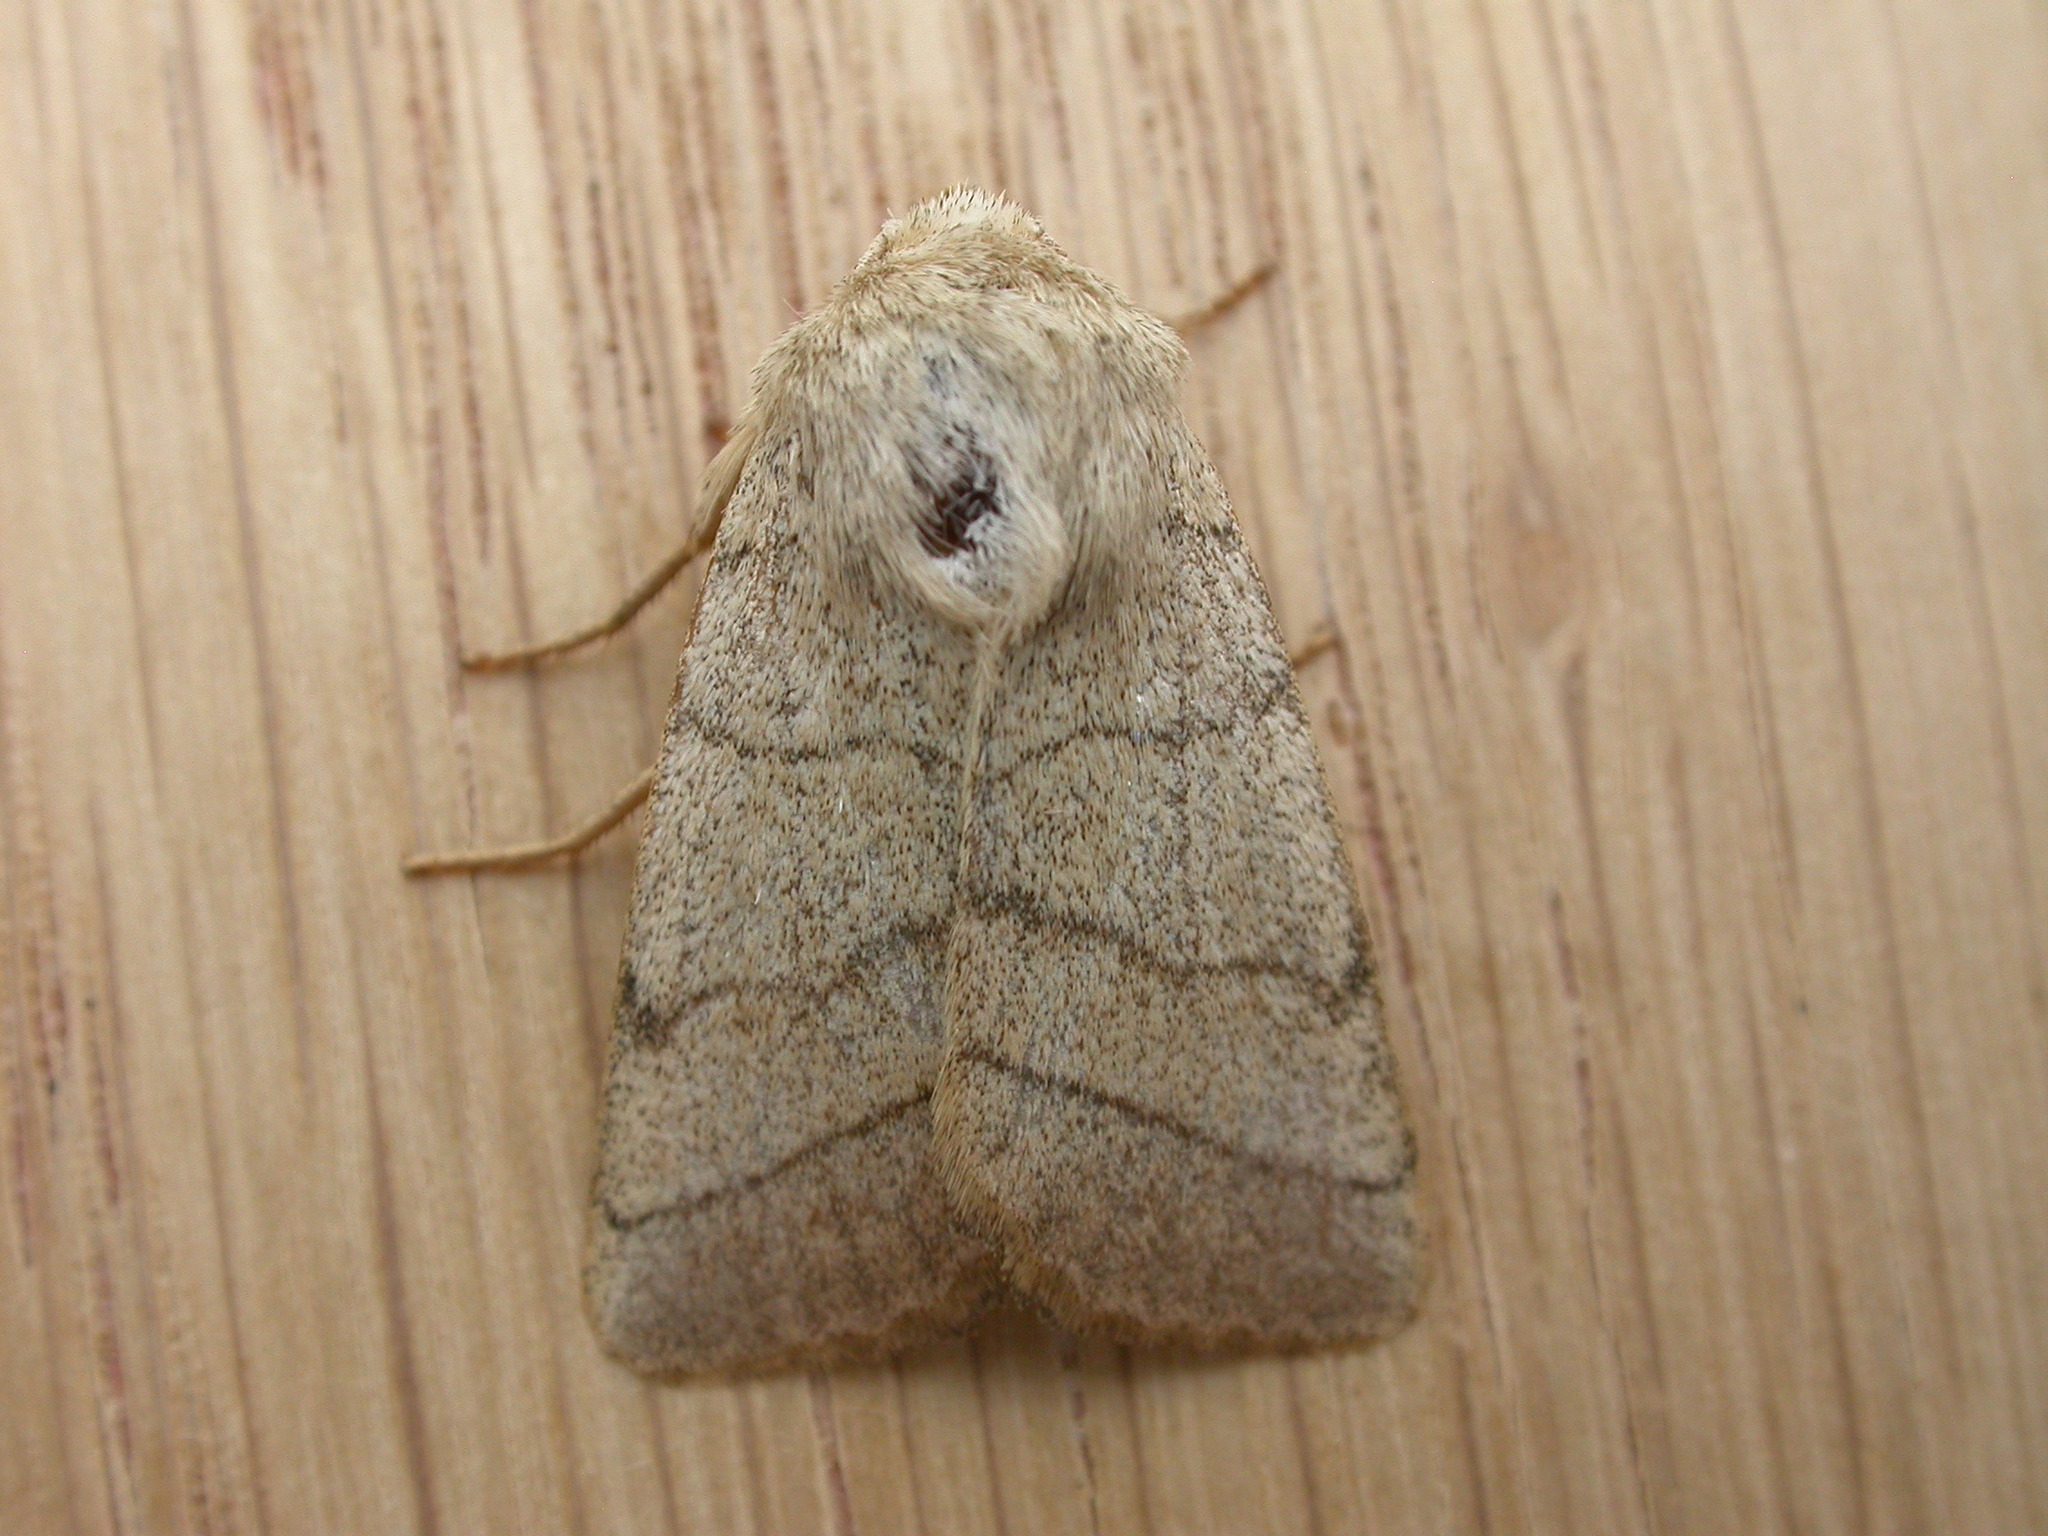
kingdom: Animalia
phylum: Arthropoda
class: Insecta
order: Lepidoptera
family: Noctuidae
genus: Charanyca
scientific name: Charanyca trigrammica
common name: Treble lines
